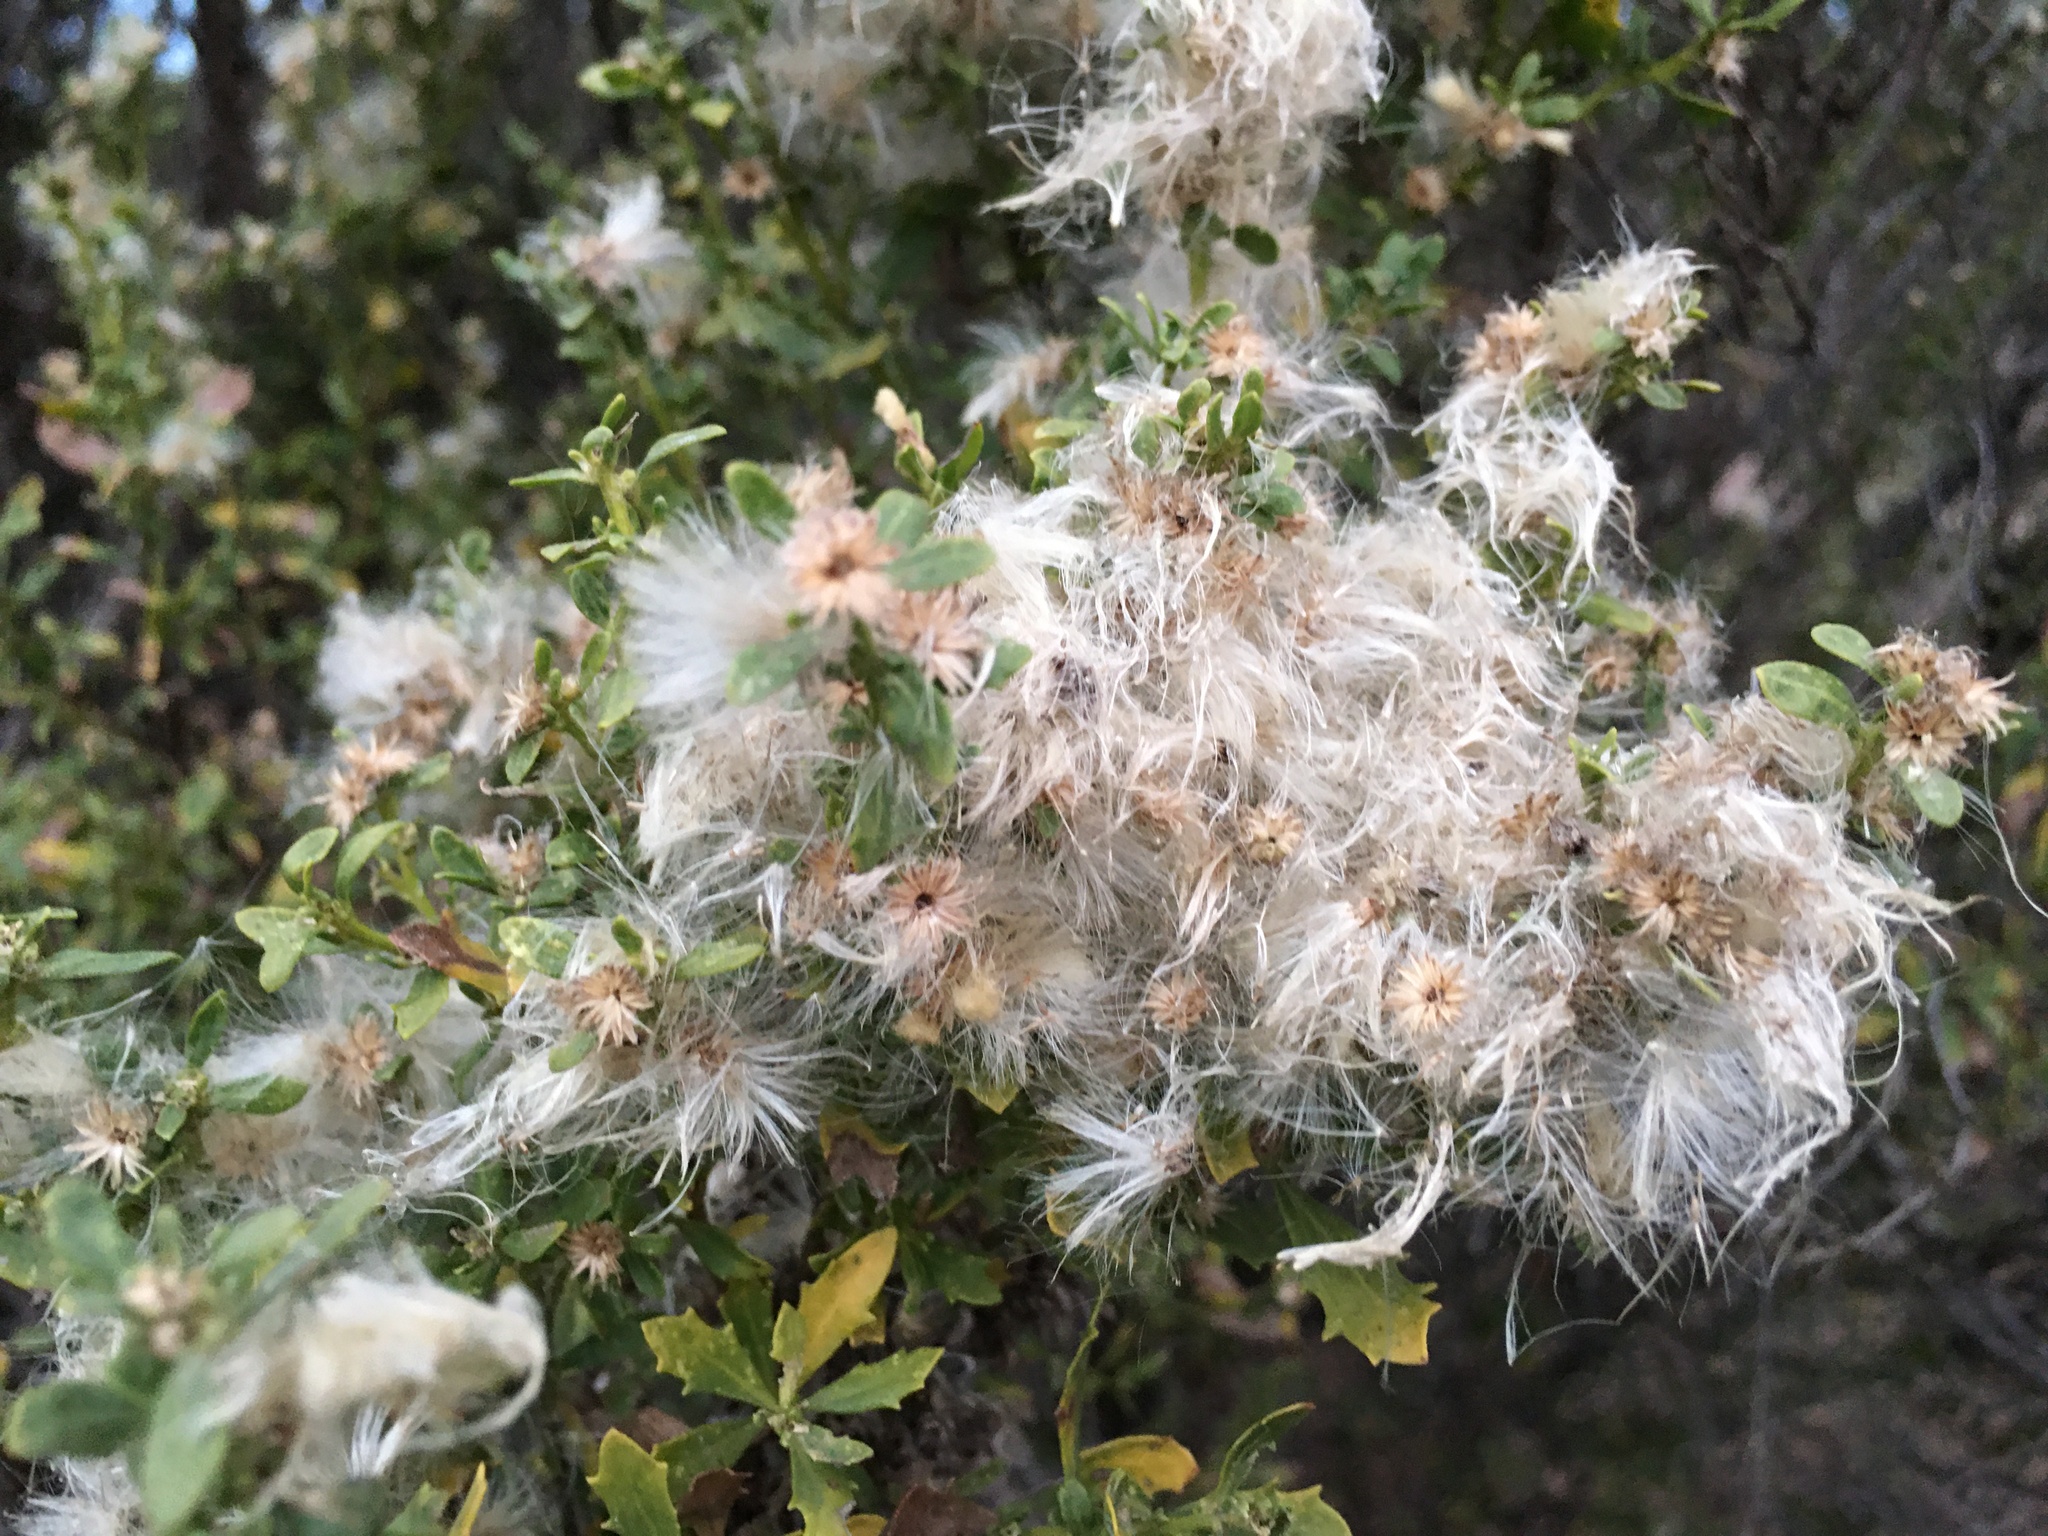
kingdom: Plantae
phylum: Tracheophyta
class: Magnoliopsida
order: Asterales
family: Asteraceae
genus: Baccharis
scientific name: Baccharis pilularis
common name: Coyotebrush
